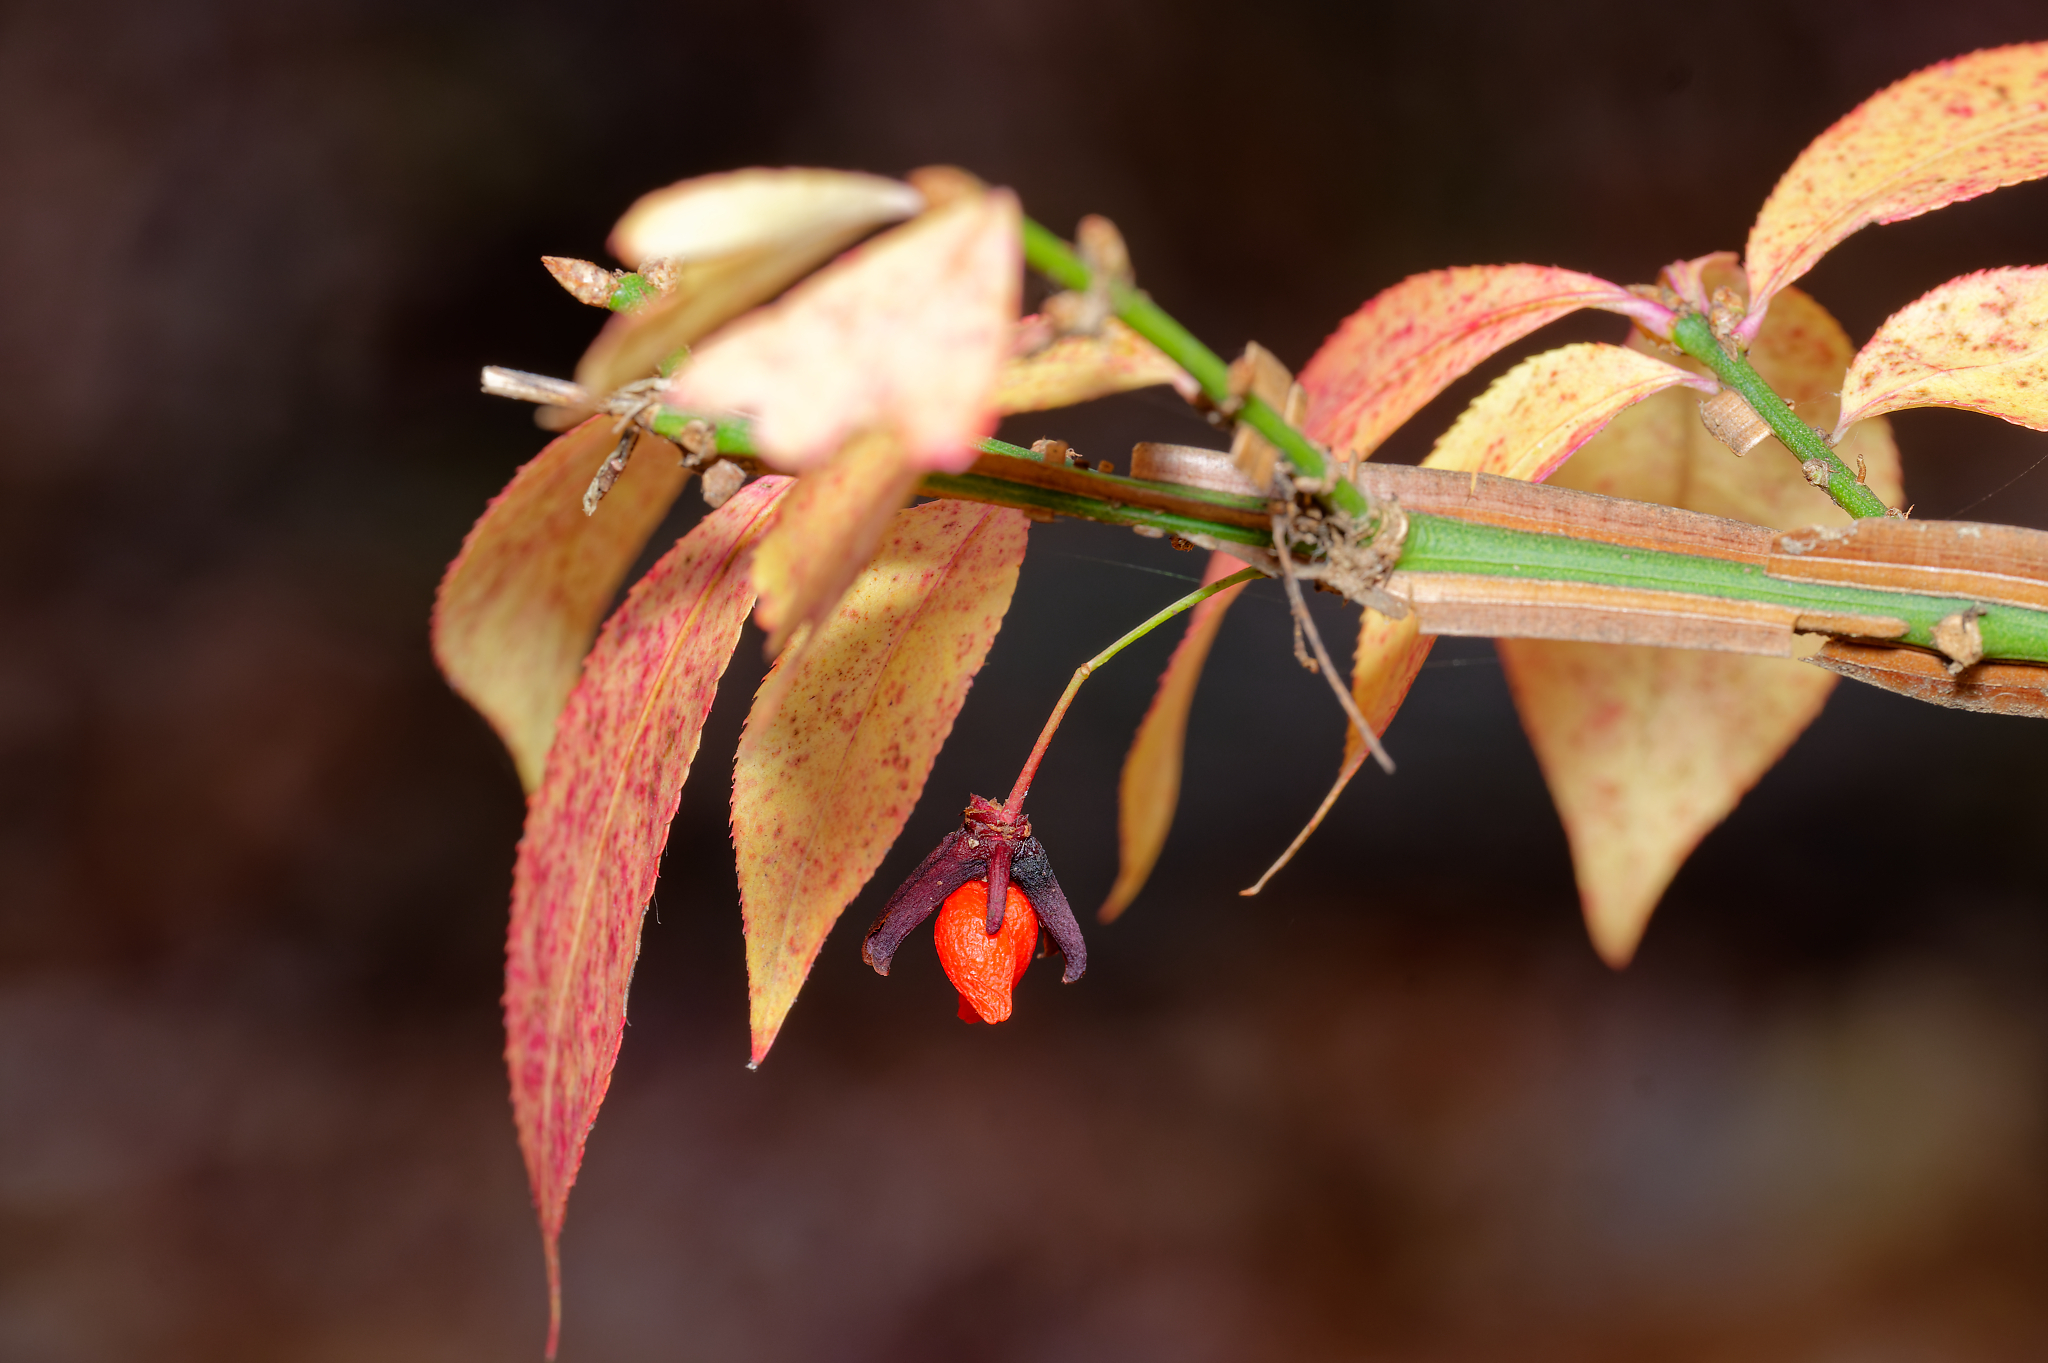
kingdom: Plantae
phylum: Tracheophyta
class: Magnoliopsida
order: Celastrales
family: Celastraceae
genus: Euonymus
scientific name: Euonymus alatus
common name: Winged euonymus
